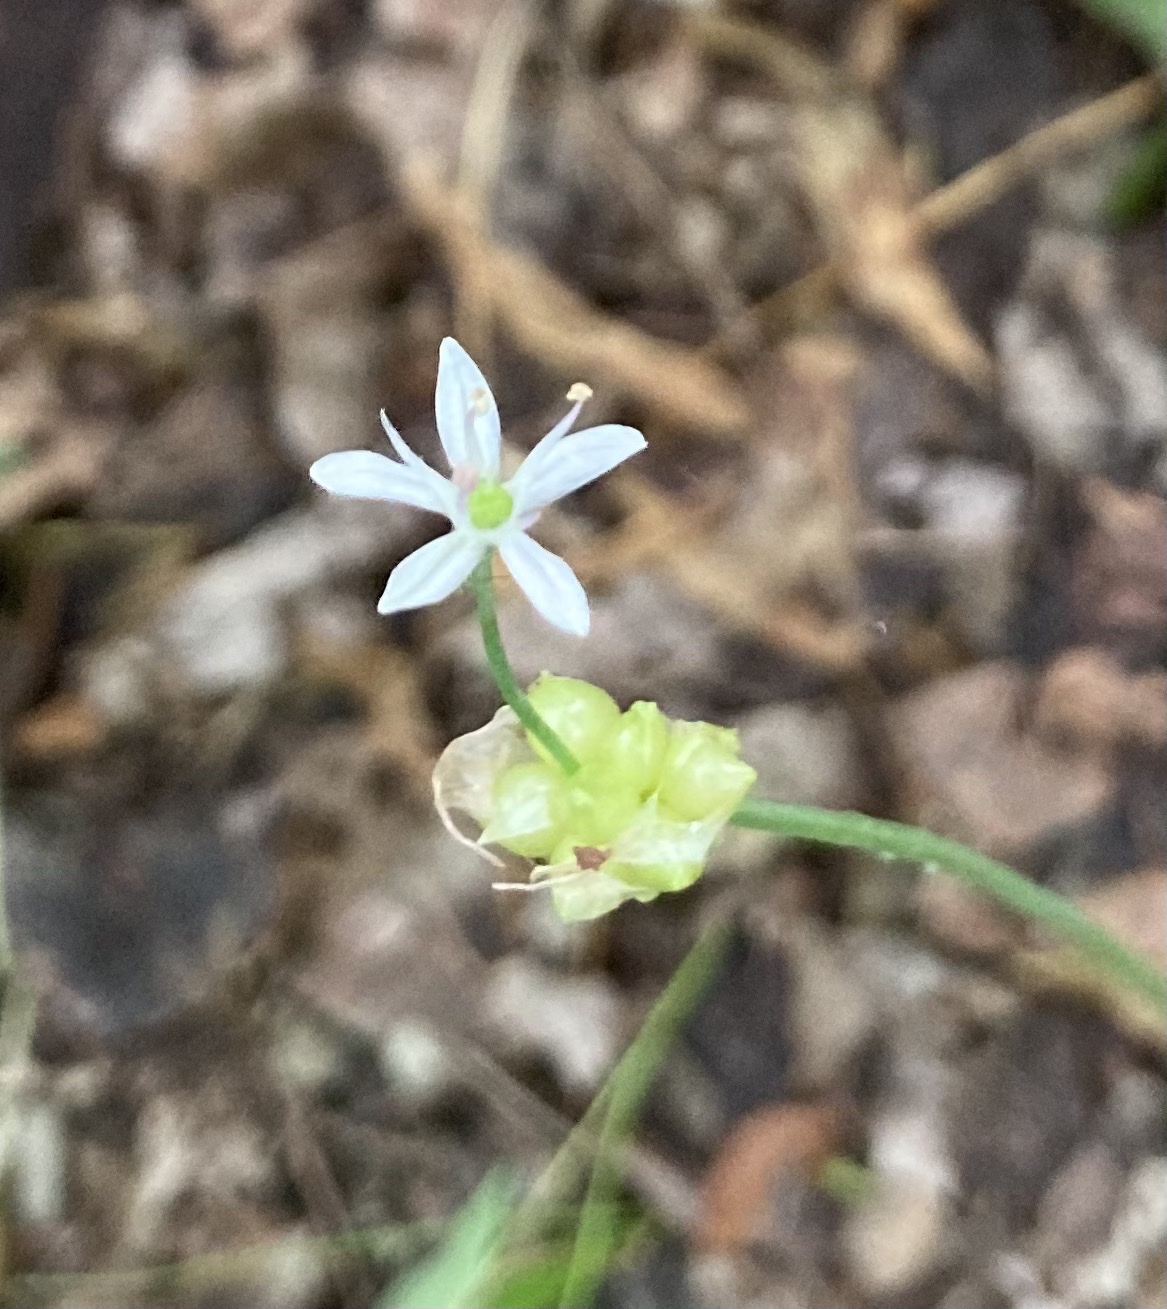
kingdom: Plantae
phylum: Tracheophyta
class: Liliopsida
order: Asparagales
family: Amaryllidaceae
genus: Allium
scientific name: Allium canadense
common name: Meadow garlic
